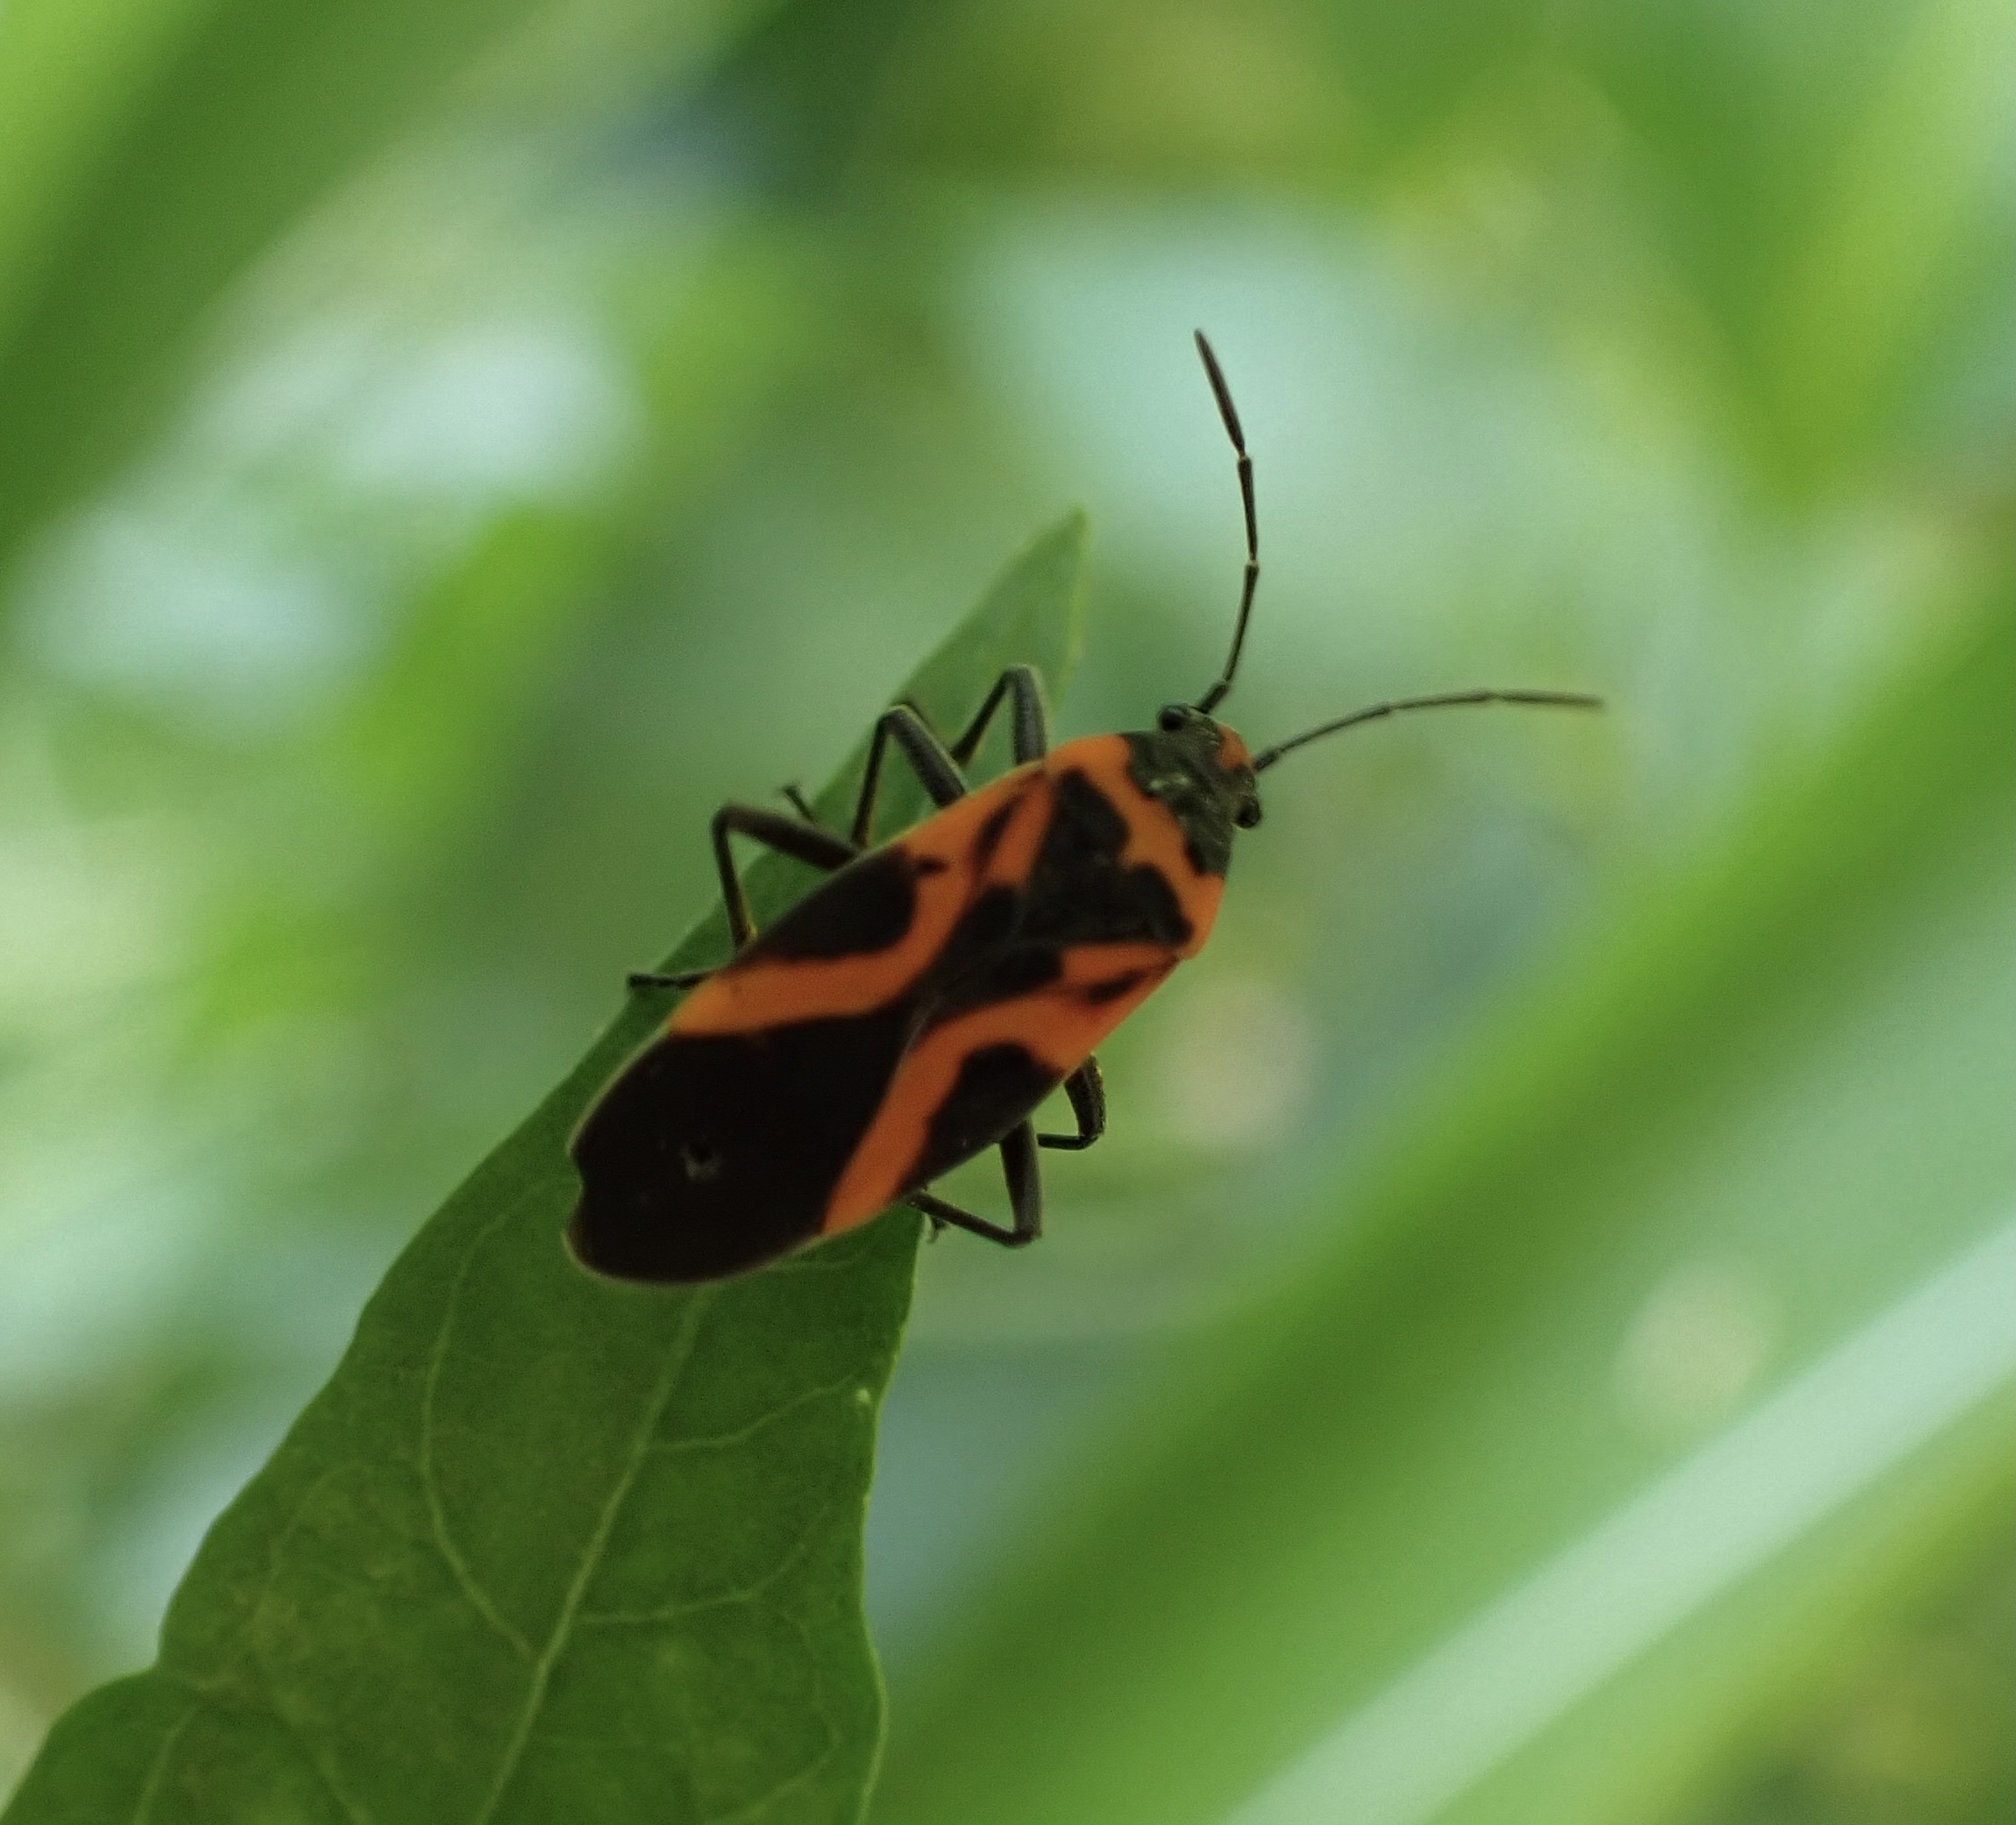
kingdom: Animalia
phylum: Arthropoda
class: Insecta
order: Hemiptera
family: Lygaeidae
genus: Lygaeus
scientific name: Lygaeus turcicus
